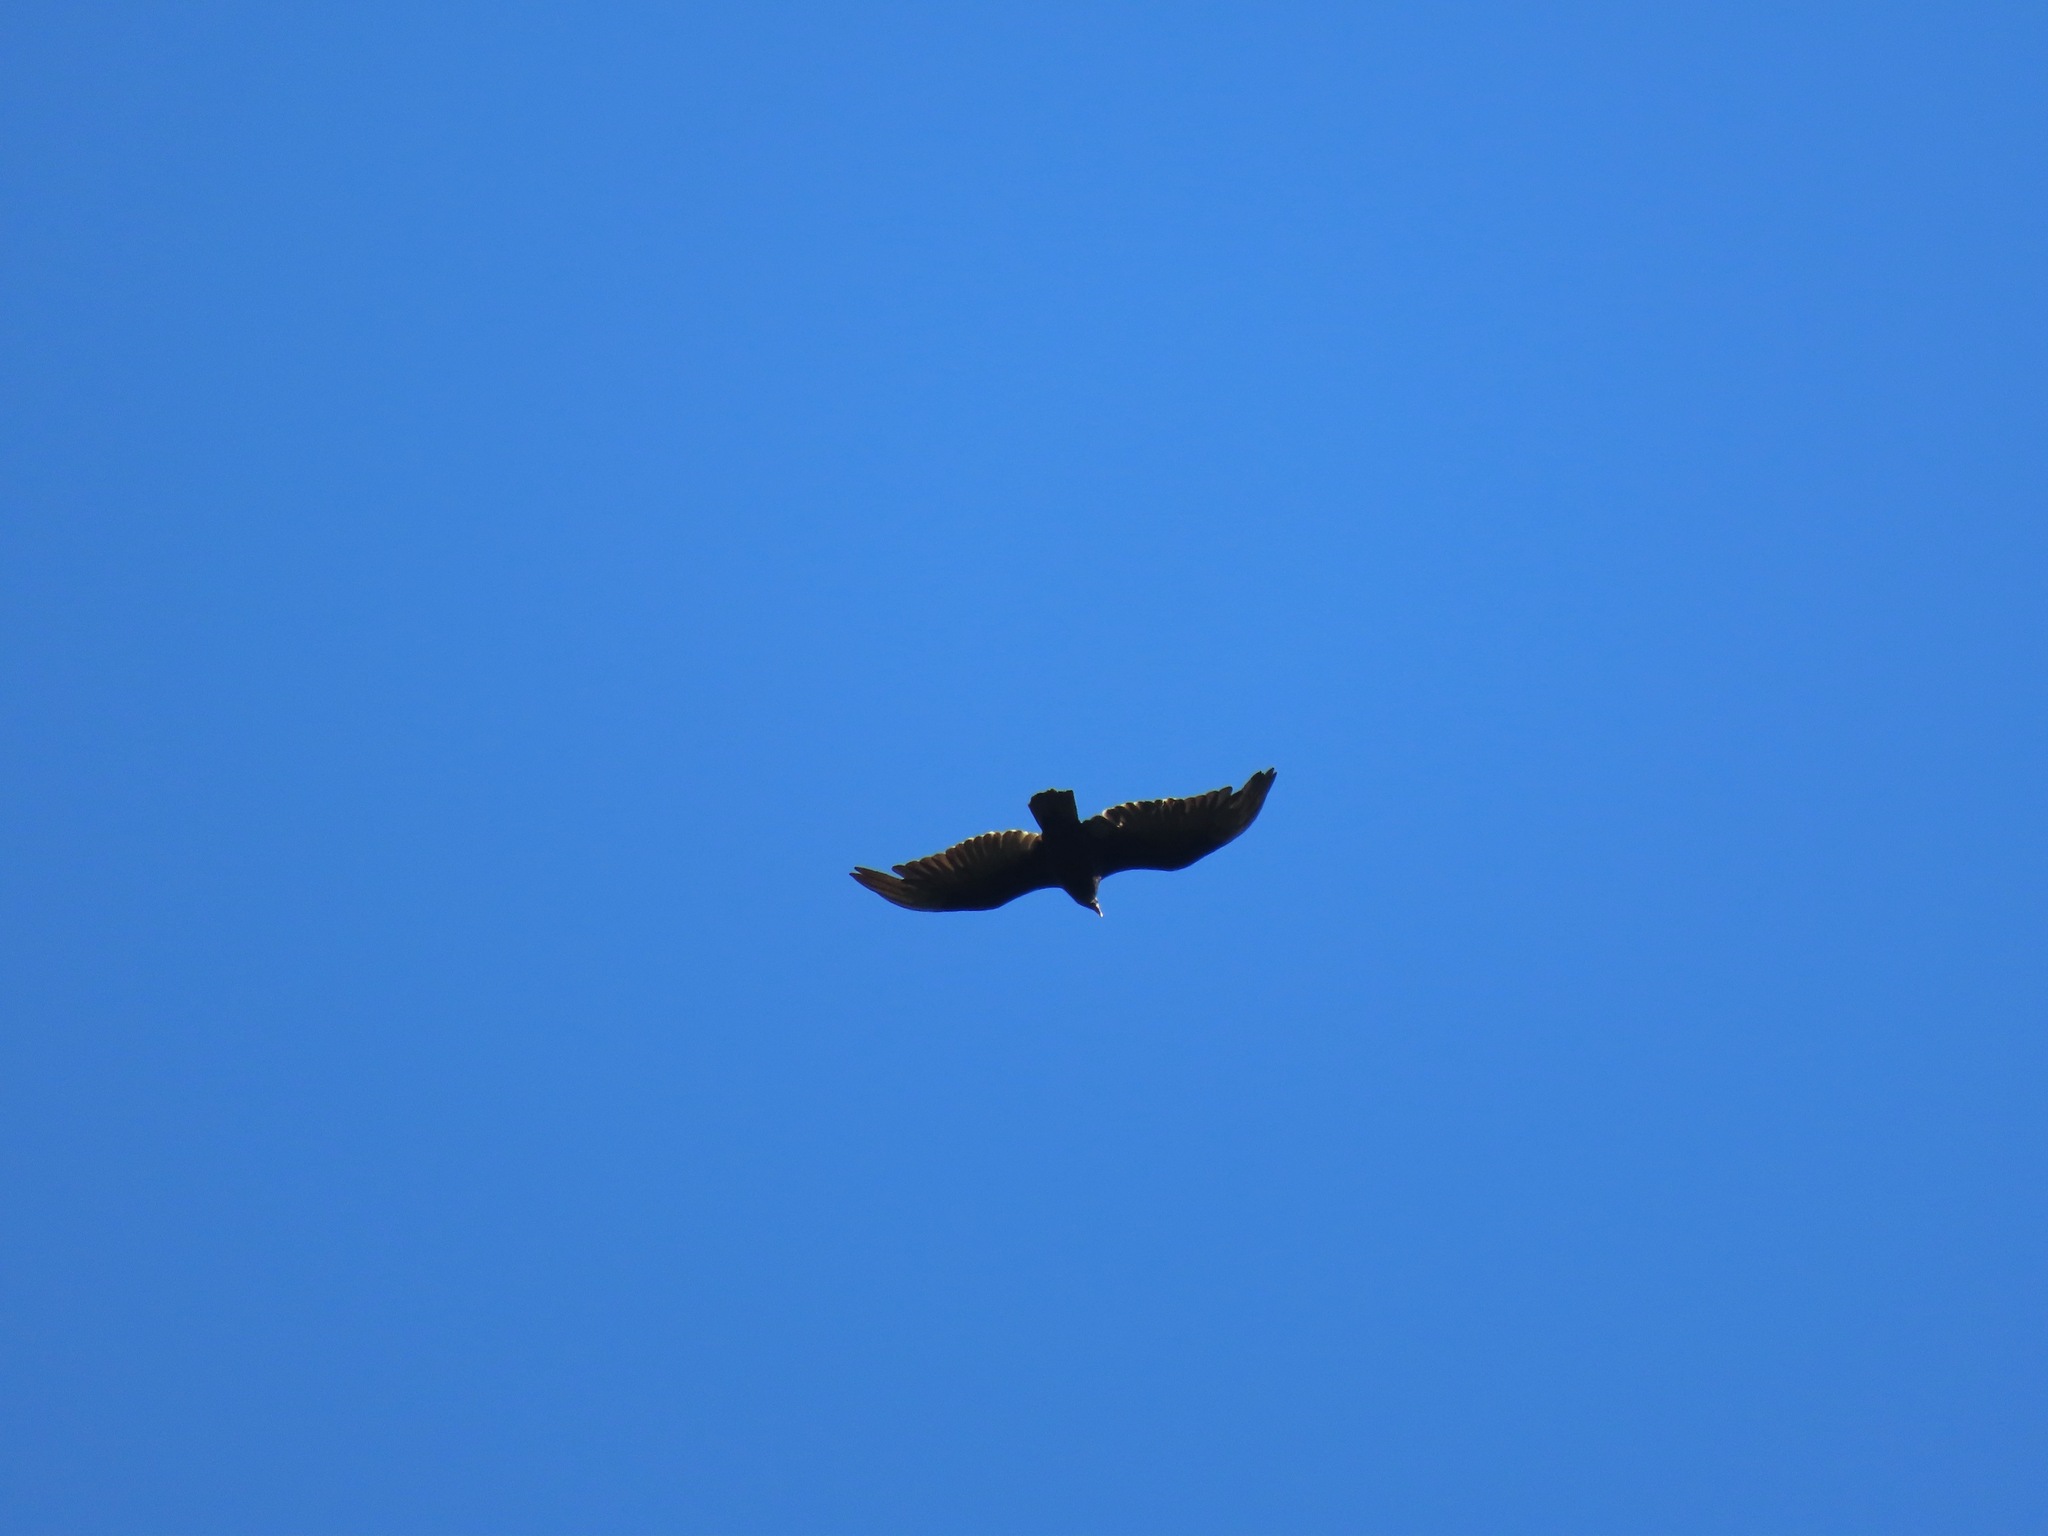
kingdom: Animalia
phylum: Chordata
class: Aves
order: Accipitriformes
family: Cathartidae
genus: Cathartes
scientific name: Cathartes aura
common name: Turkey vulture
